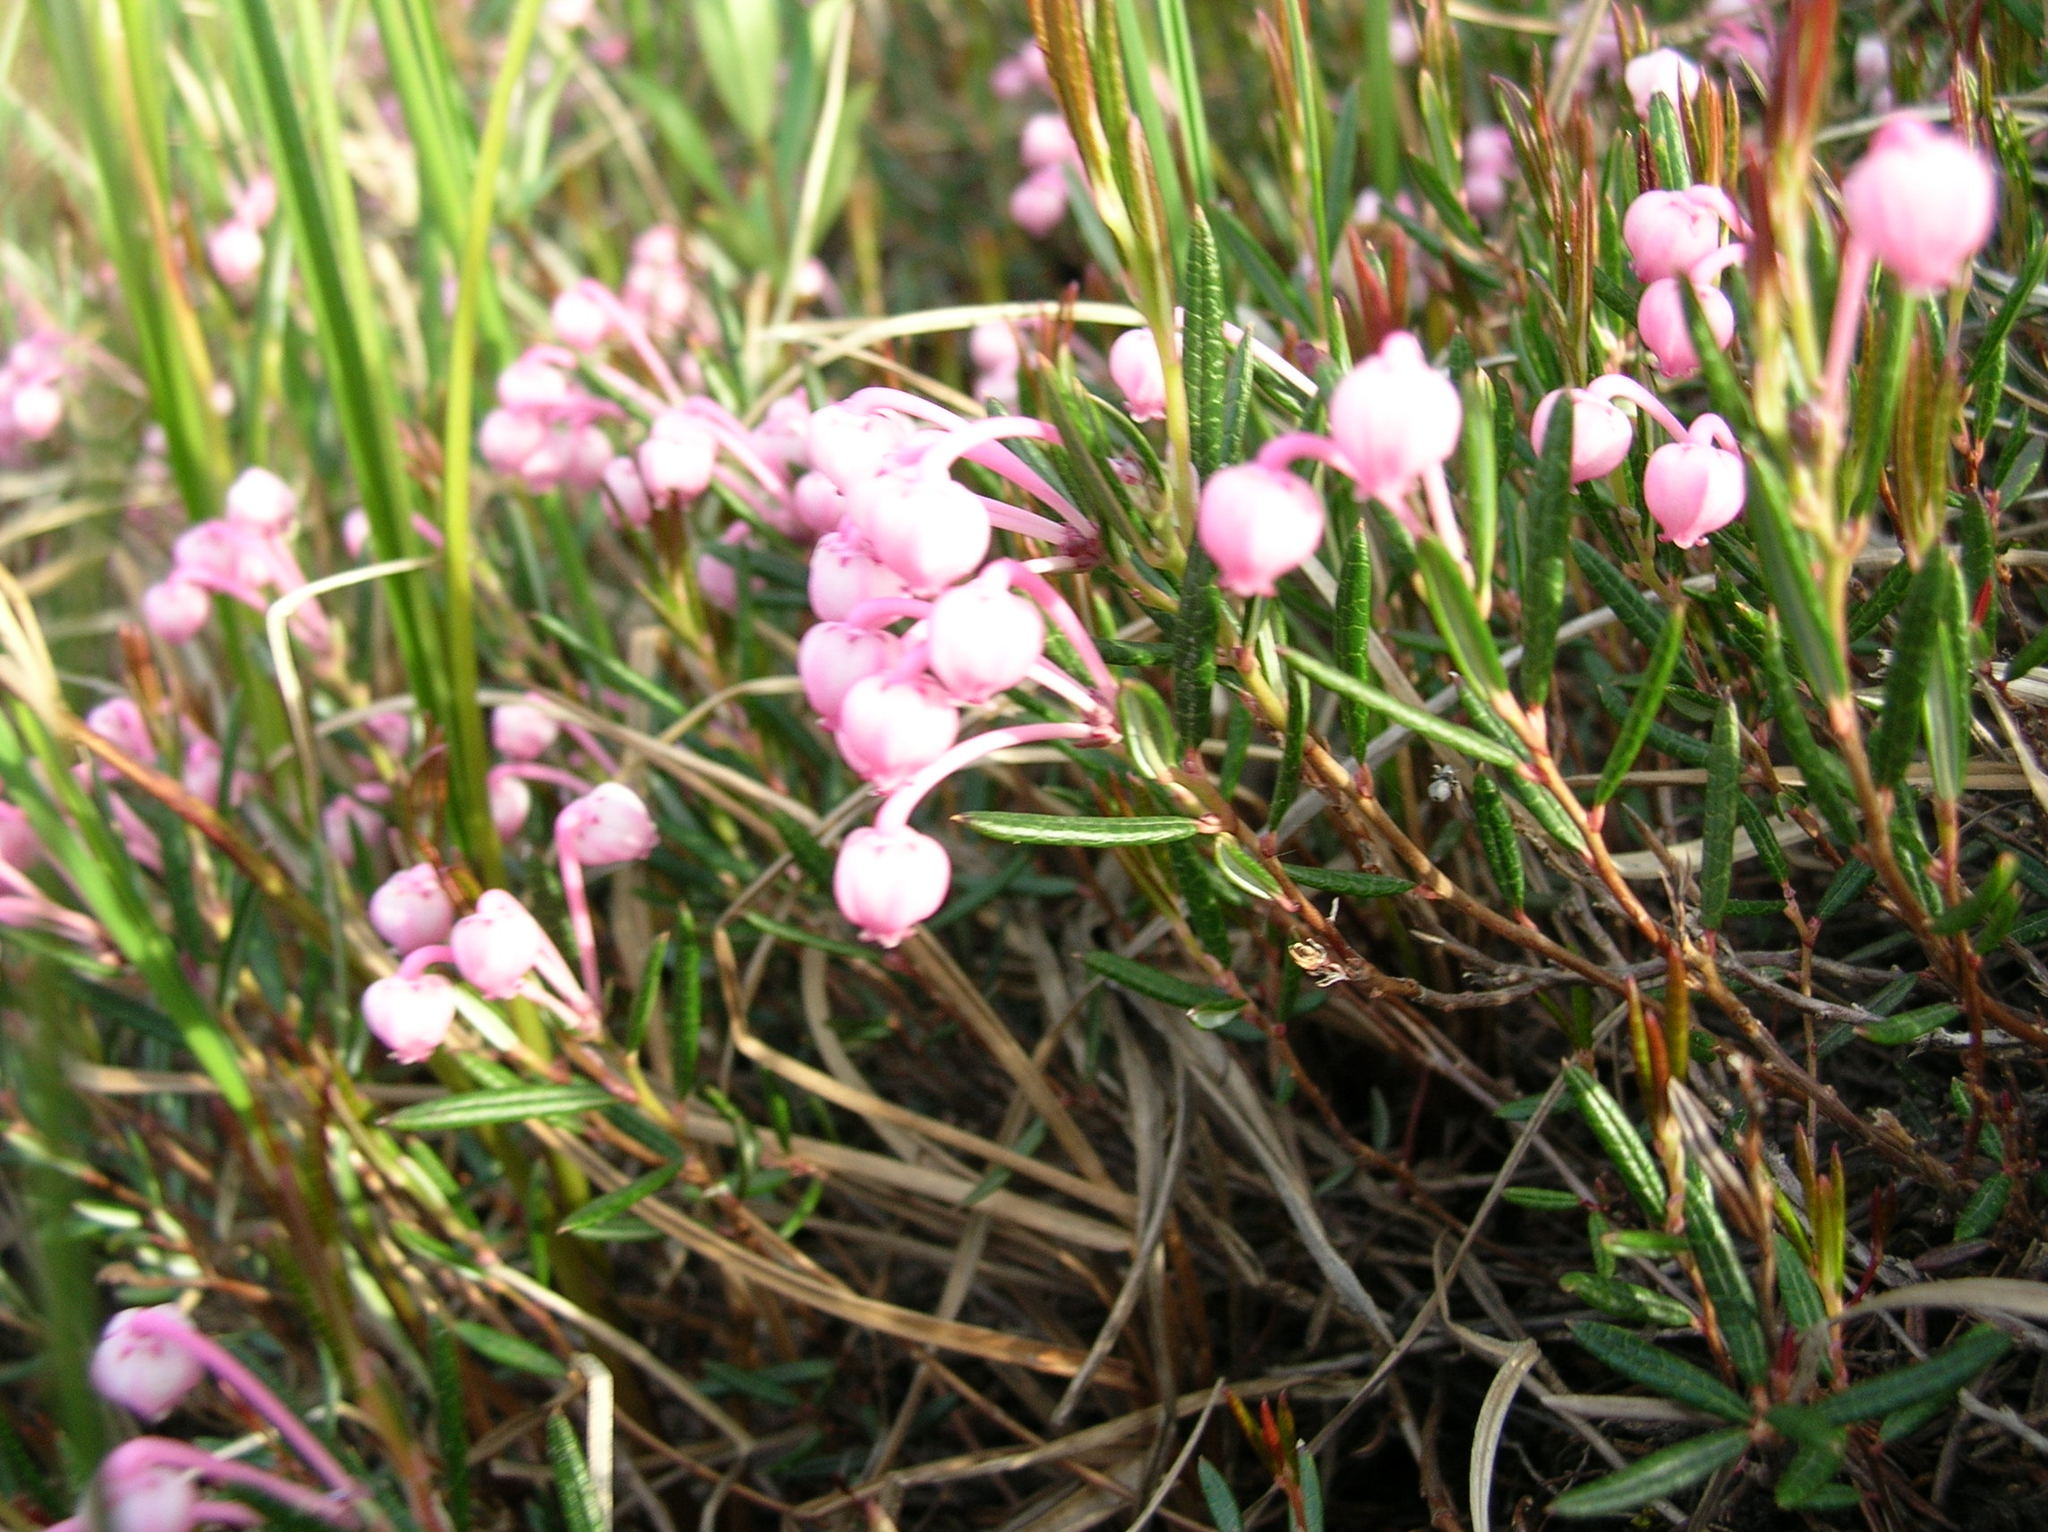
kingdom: Plantae
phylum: Tracheophyta
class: Magnoliopsida
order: Ericales
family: Ericaceae
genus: Andromeda
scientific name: Andromeda polifolia
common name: Bog-rosemary
